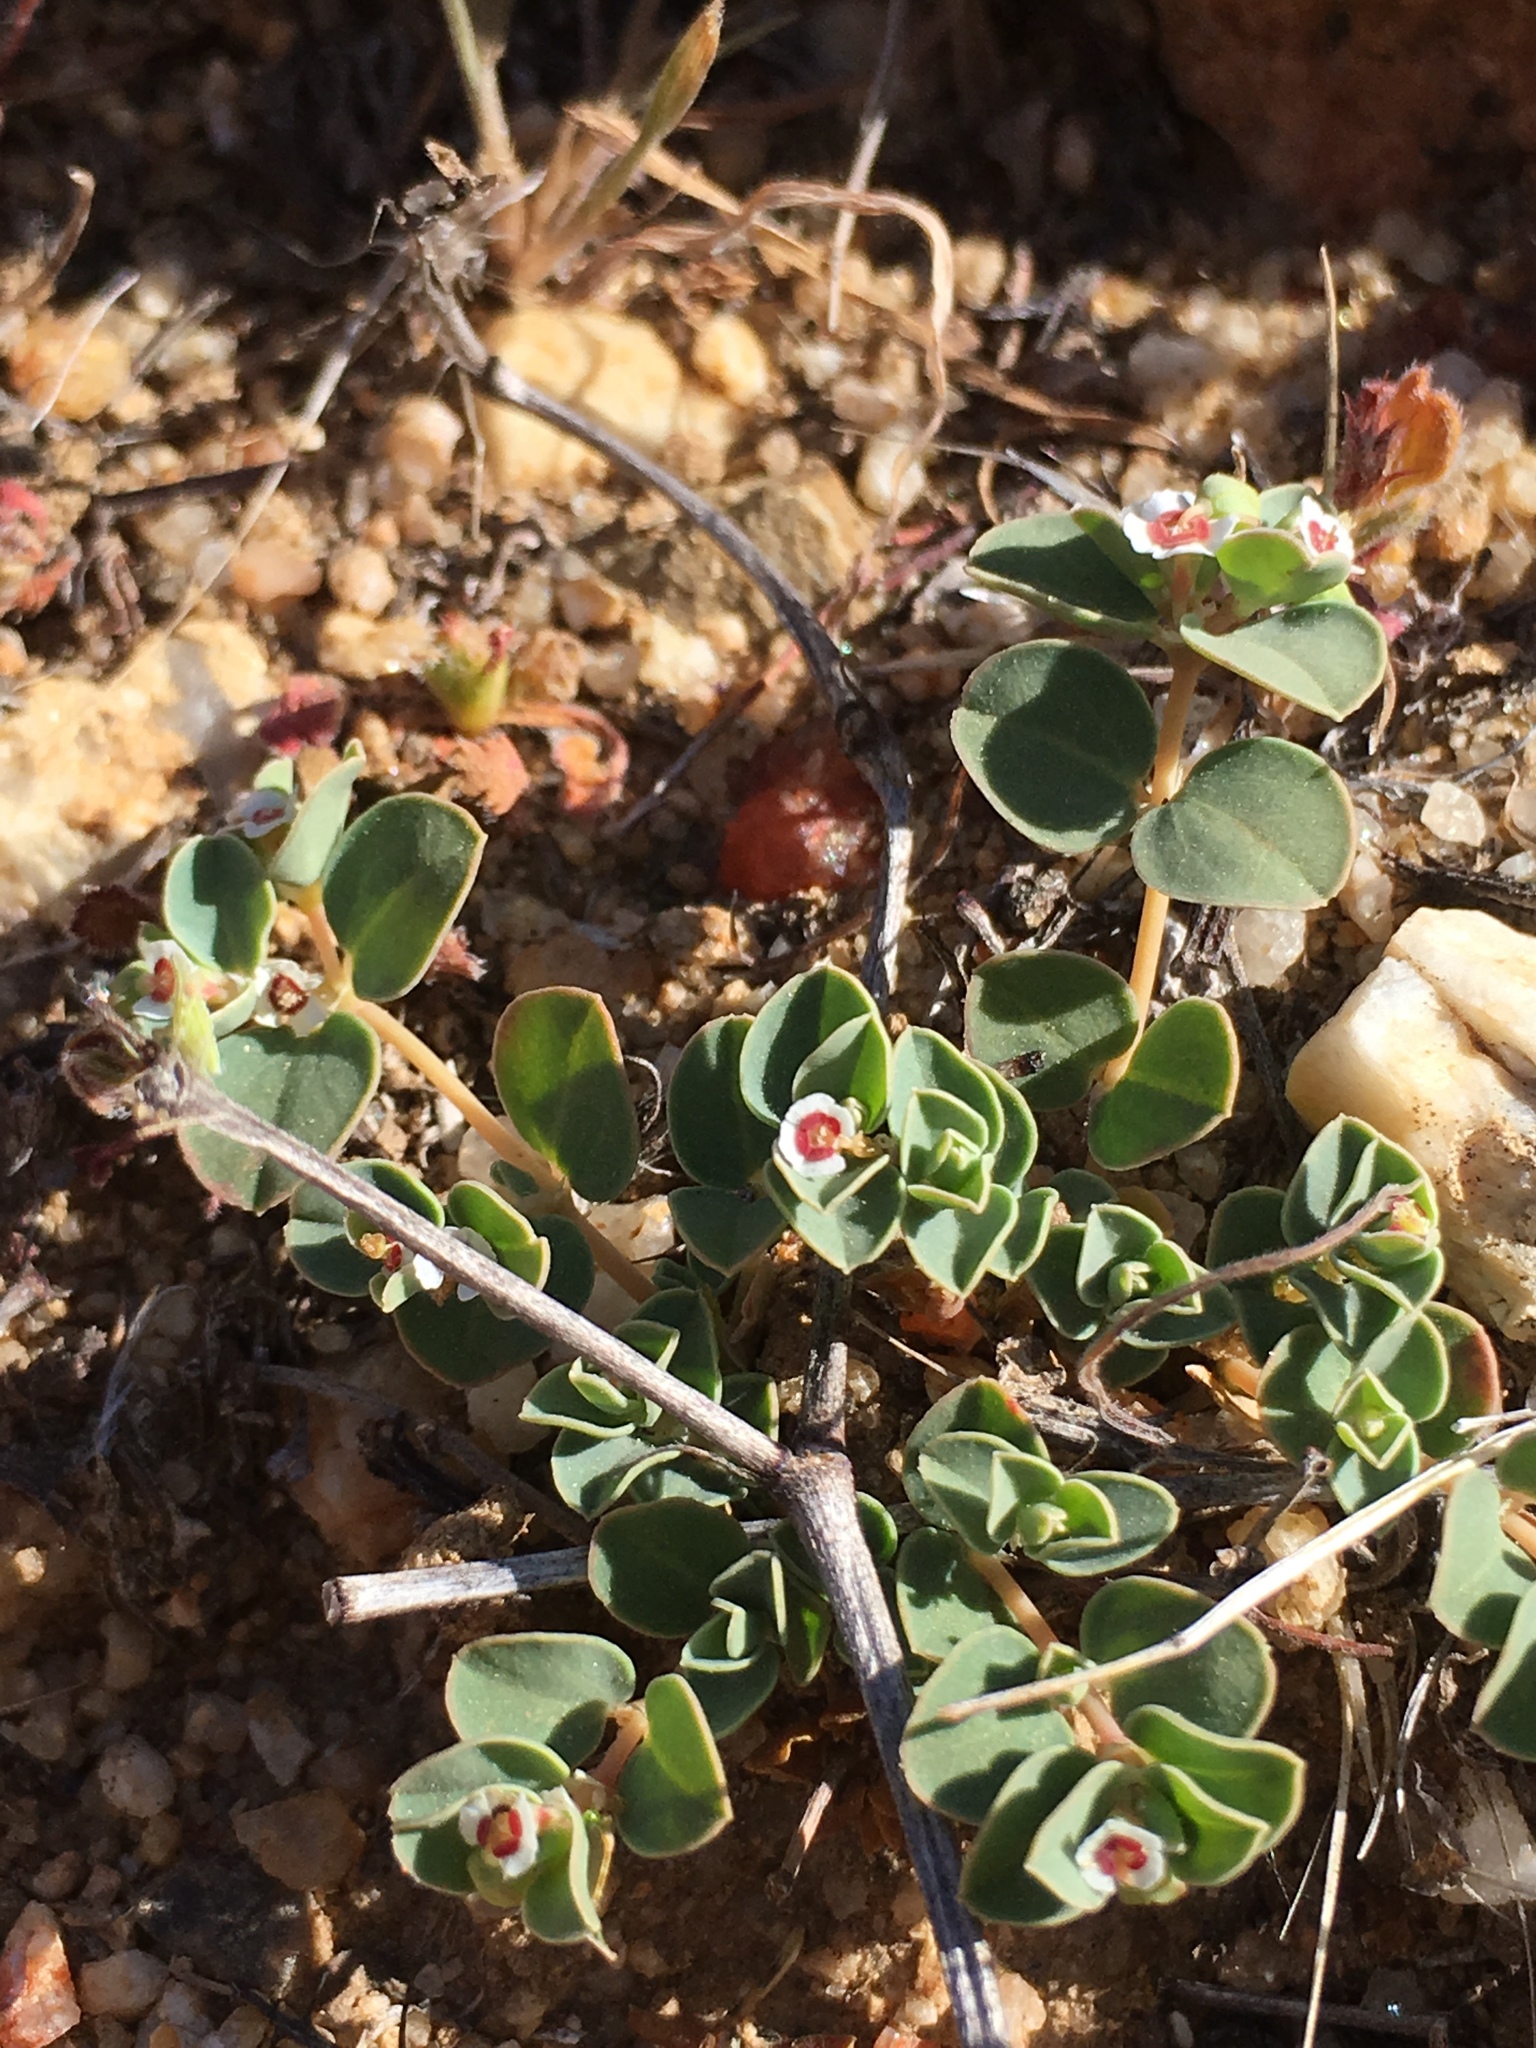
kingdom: Plantae
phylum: Tracheophyta
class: Magnoliopsida
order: Malpighiales
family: Euphorbiaceae
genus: Euphorbia
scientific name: Euphorbia albomarginata
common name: Whitemargin sandmat
